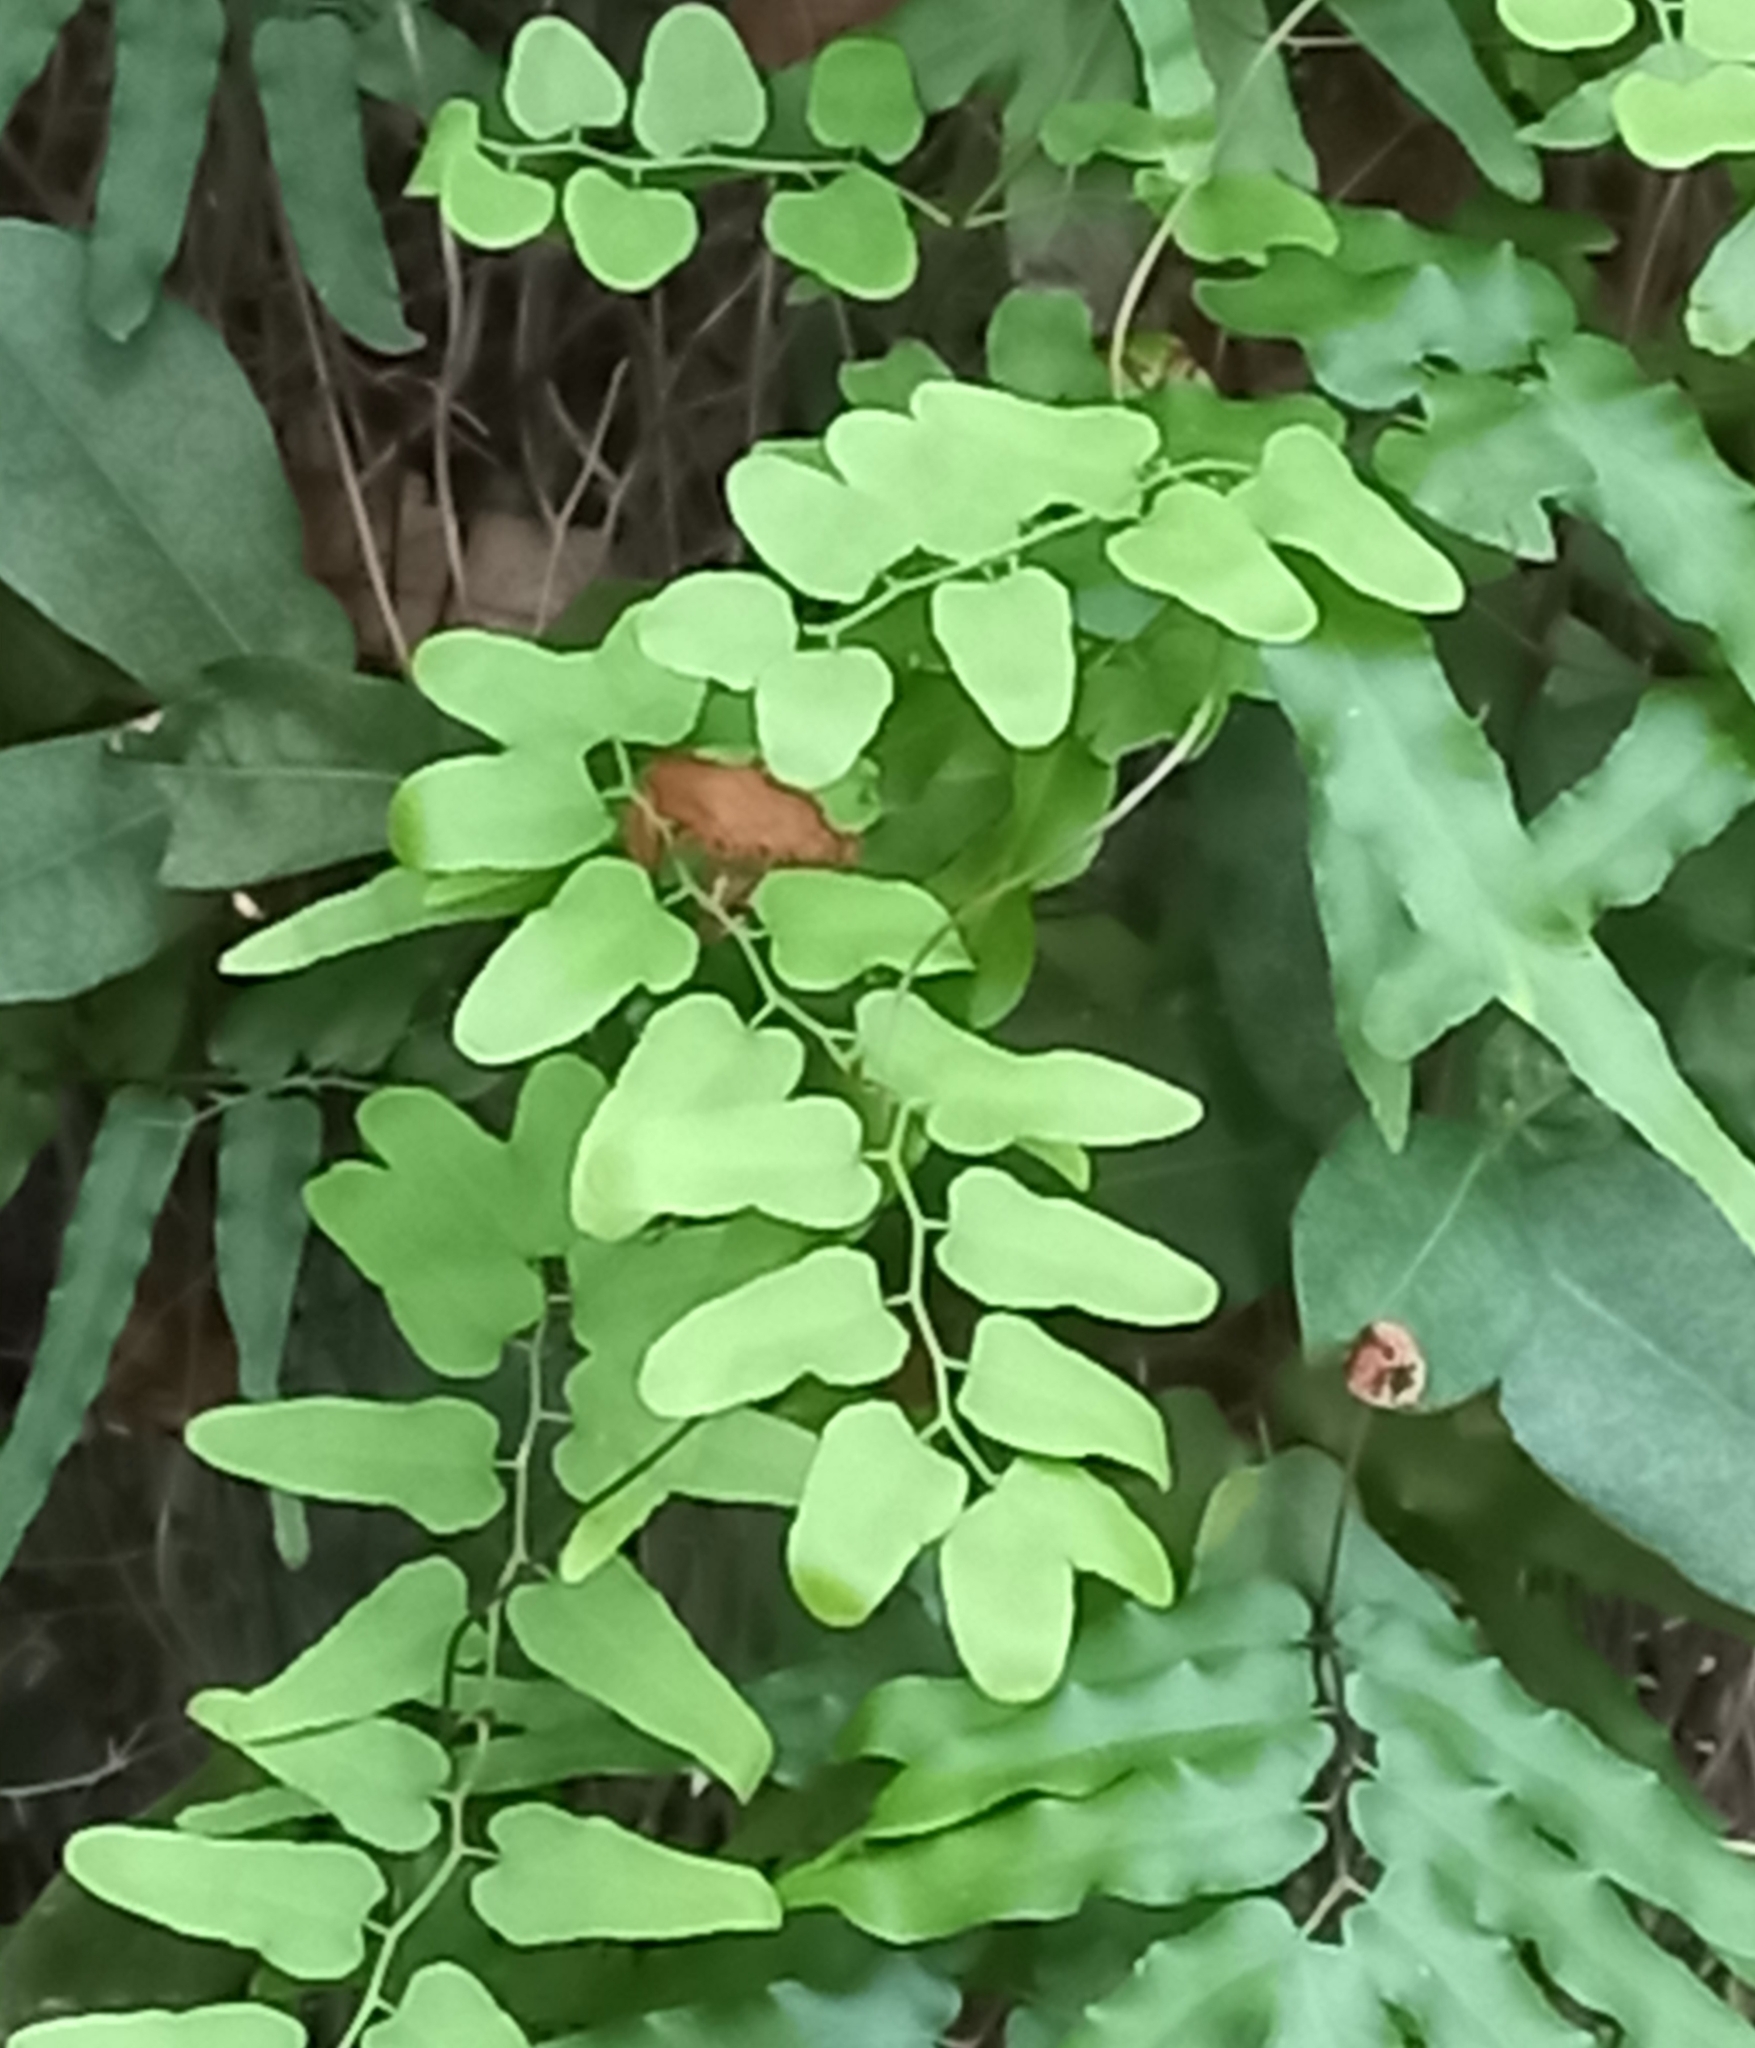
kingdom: Plantae
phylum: Tracheophyta
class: Polypodiopsida
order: Schizaeales
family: Lygodiaceae
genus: Lygodium
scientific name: Lygodium microphyllum
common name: Small-leaf climbing fern
